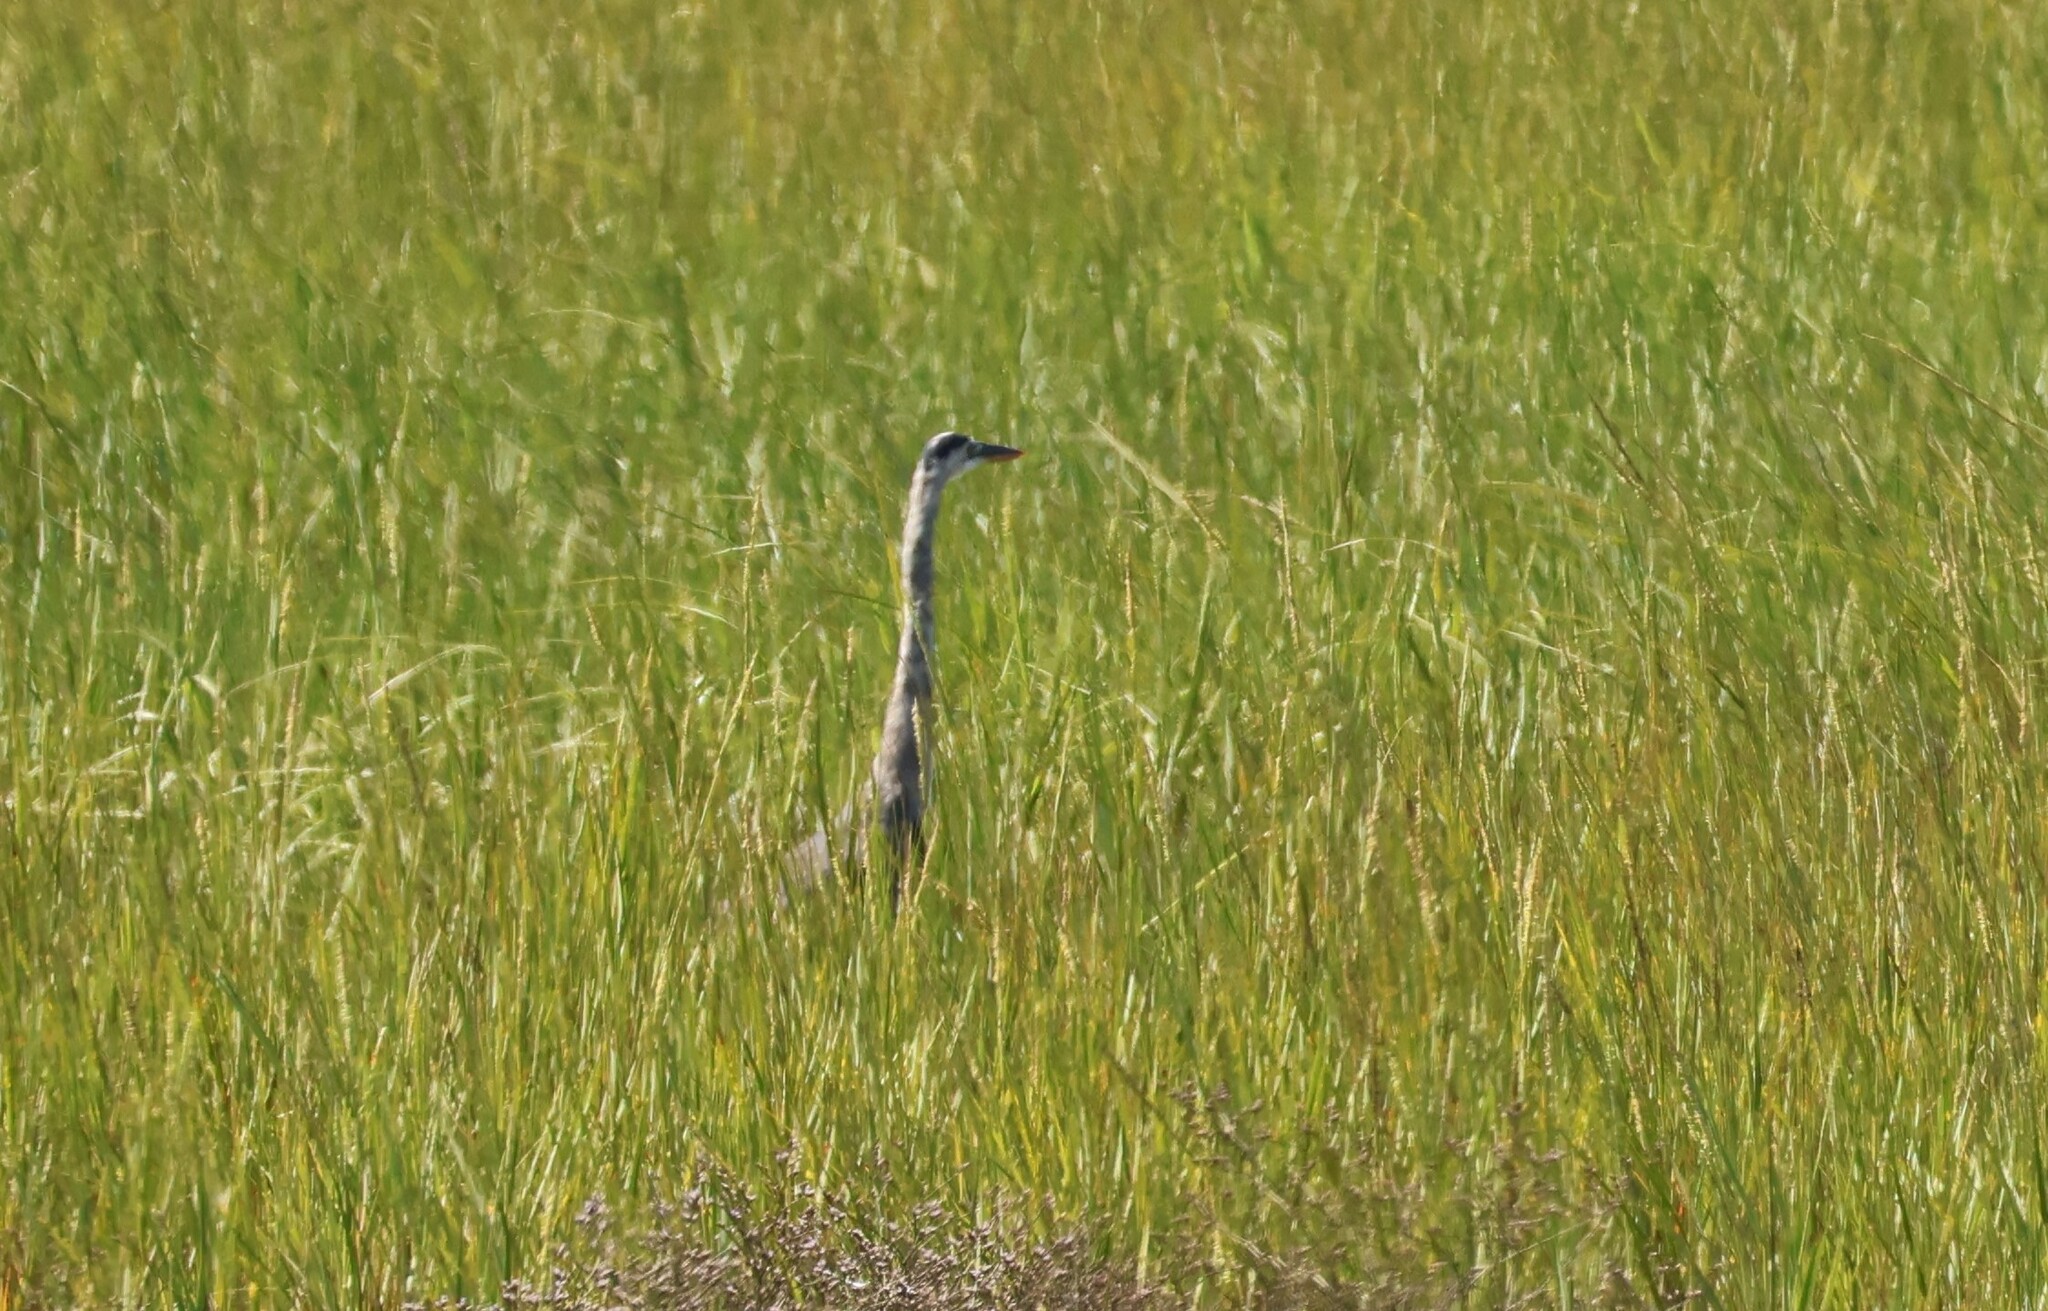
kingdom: Animalia
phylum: Chordata
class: Aves
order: Pelecaniformes
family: Ardeidae
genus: Ardea
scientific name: Ardea herodias
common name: Great blue heron
